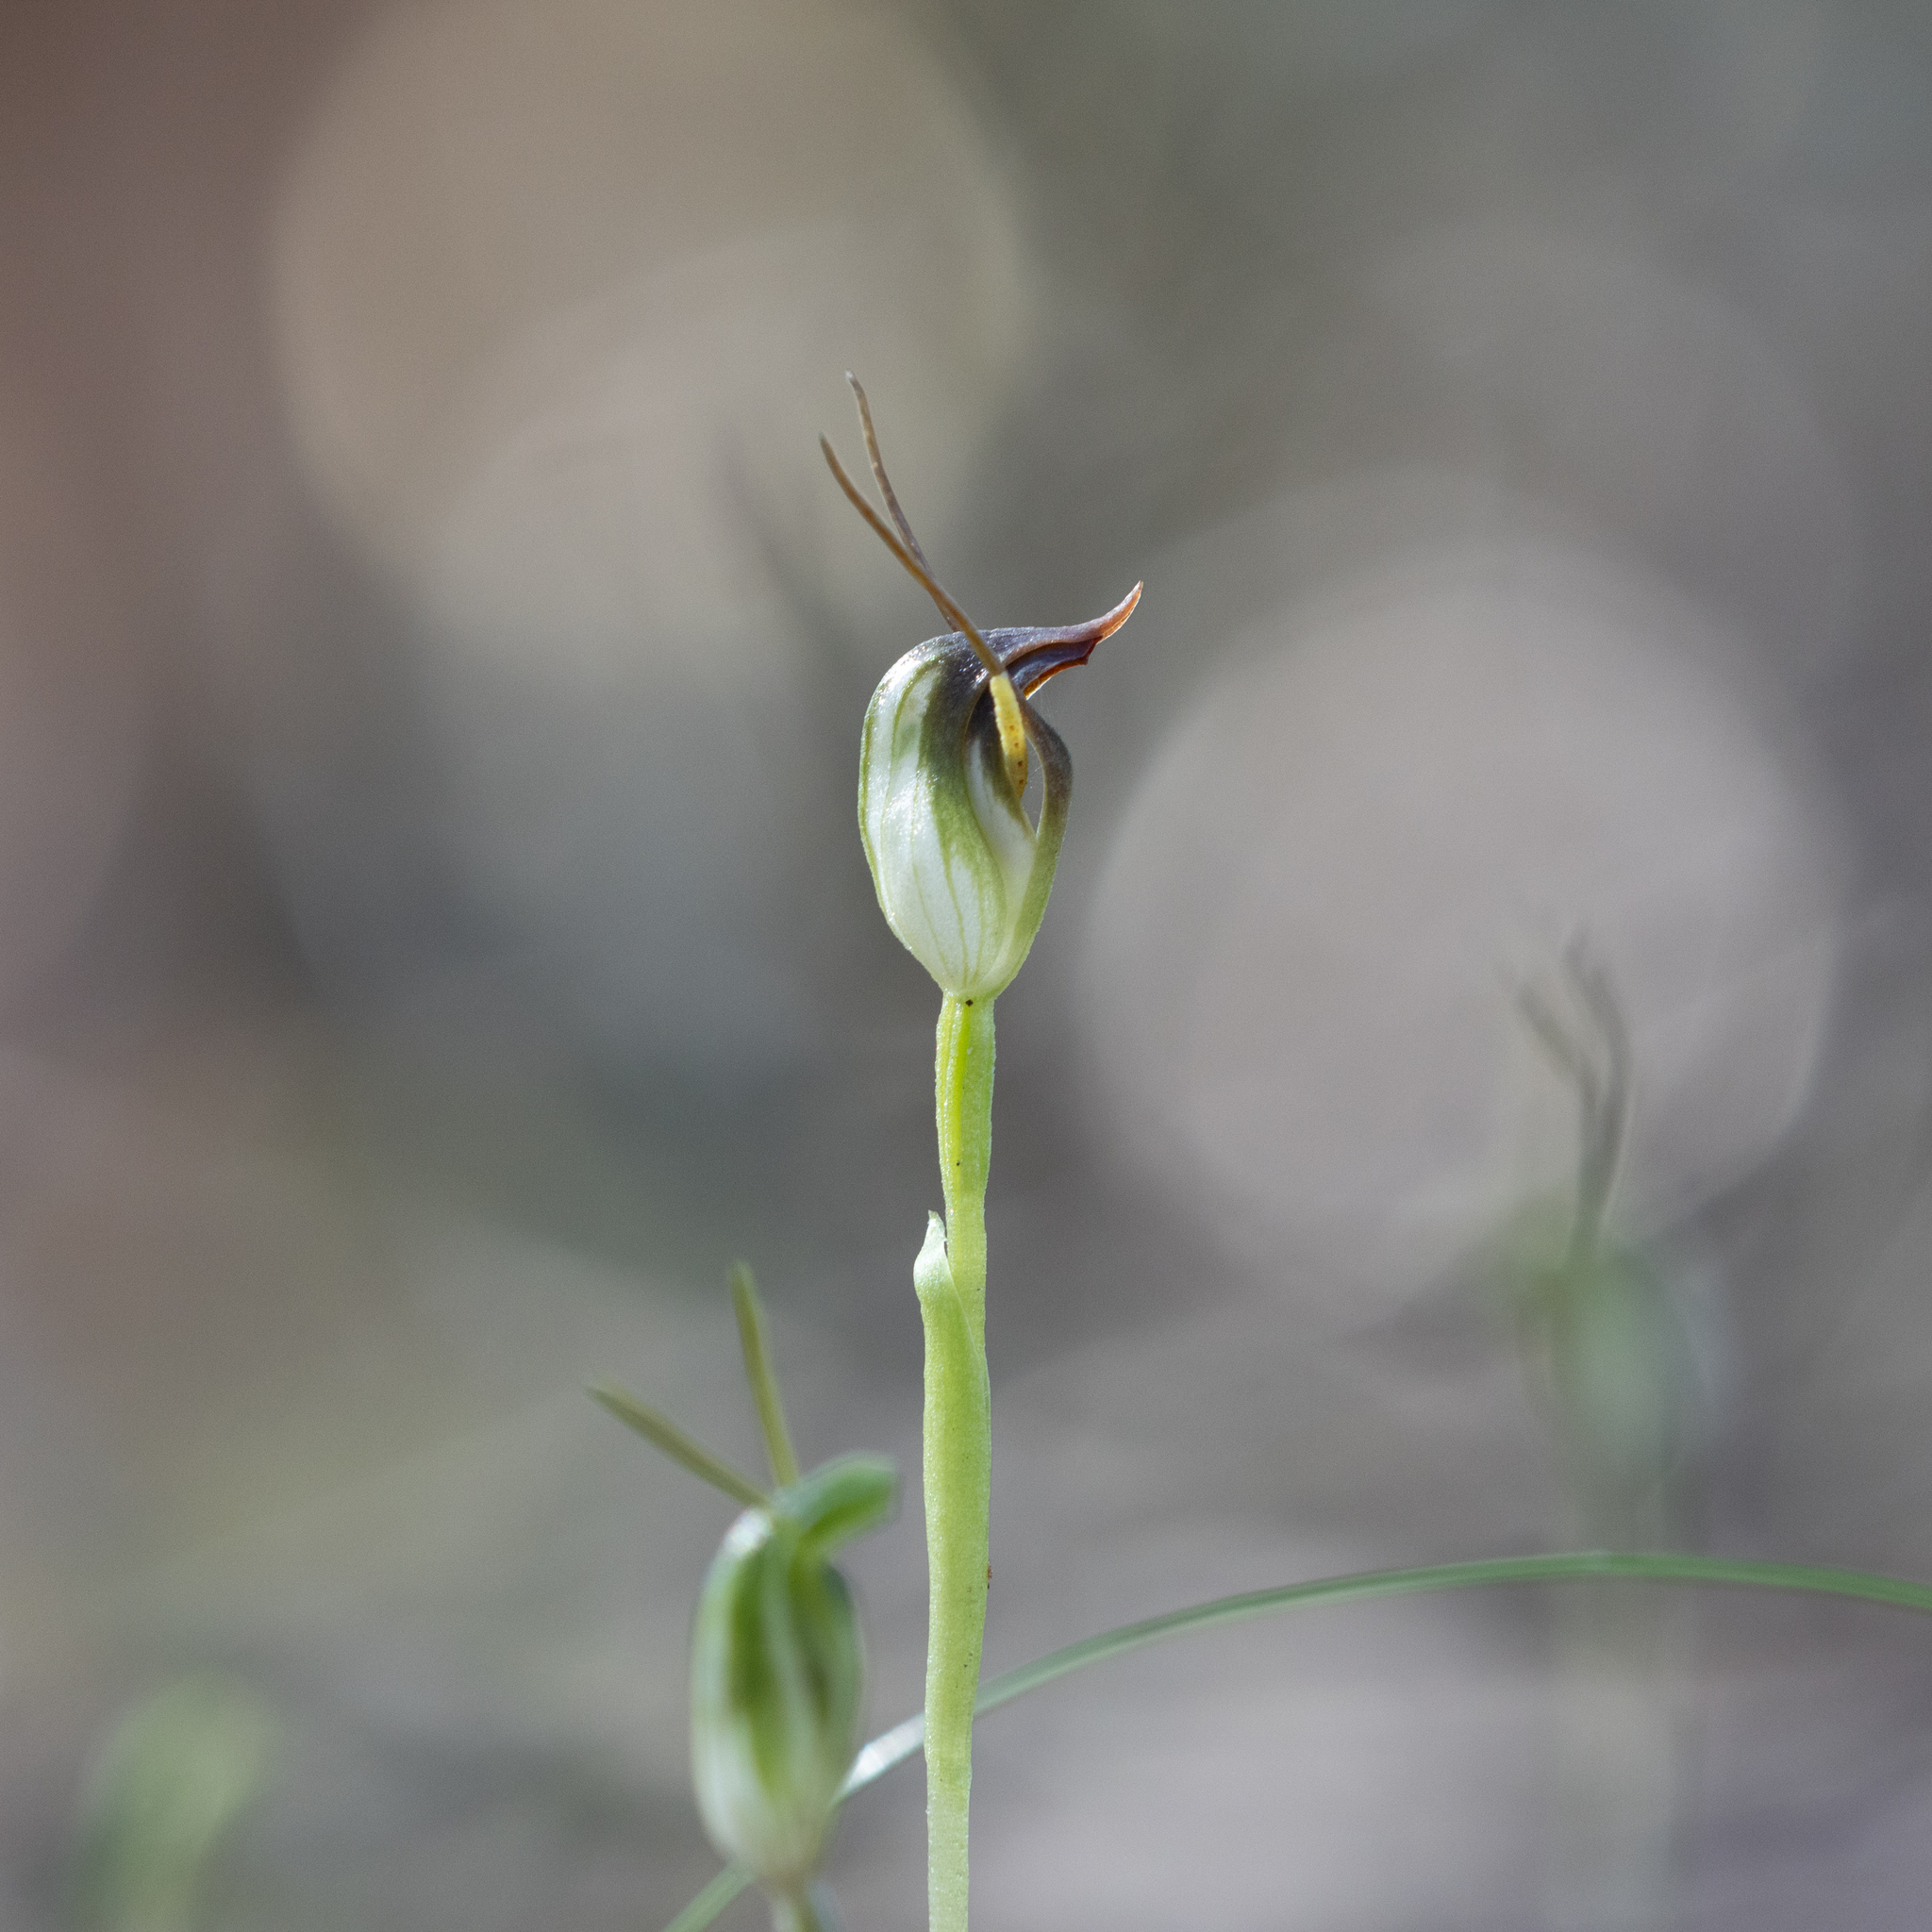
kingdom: Plantae
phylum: Tracheophyta
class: Liliopsida
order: Asparagales
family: Orchidaceae
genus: Pterostylis
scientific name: Pterostylis pedunculata
